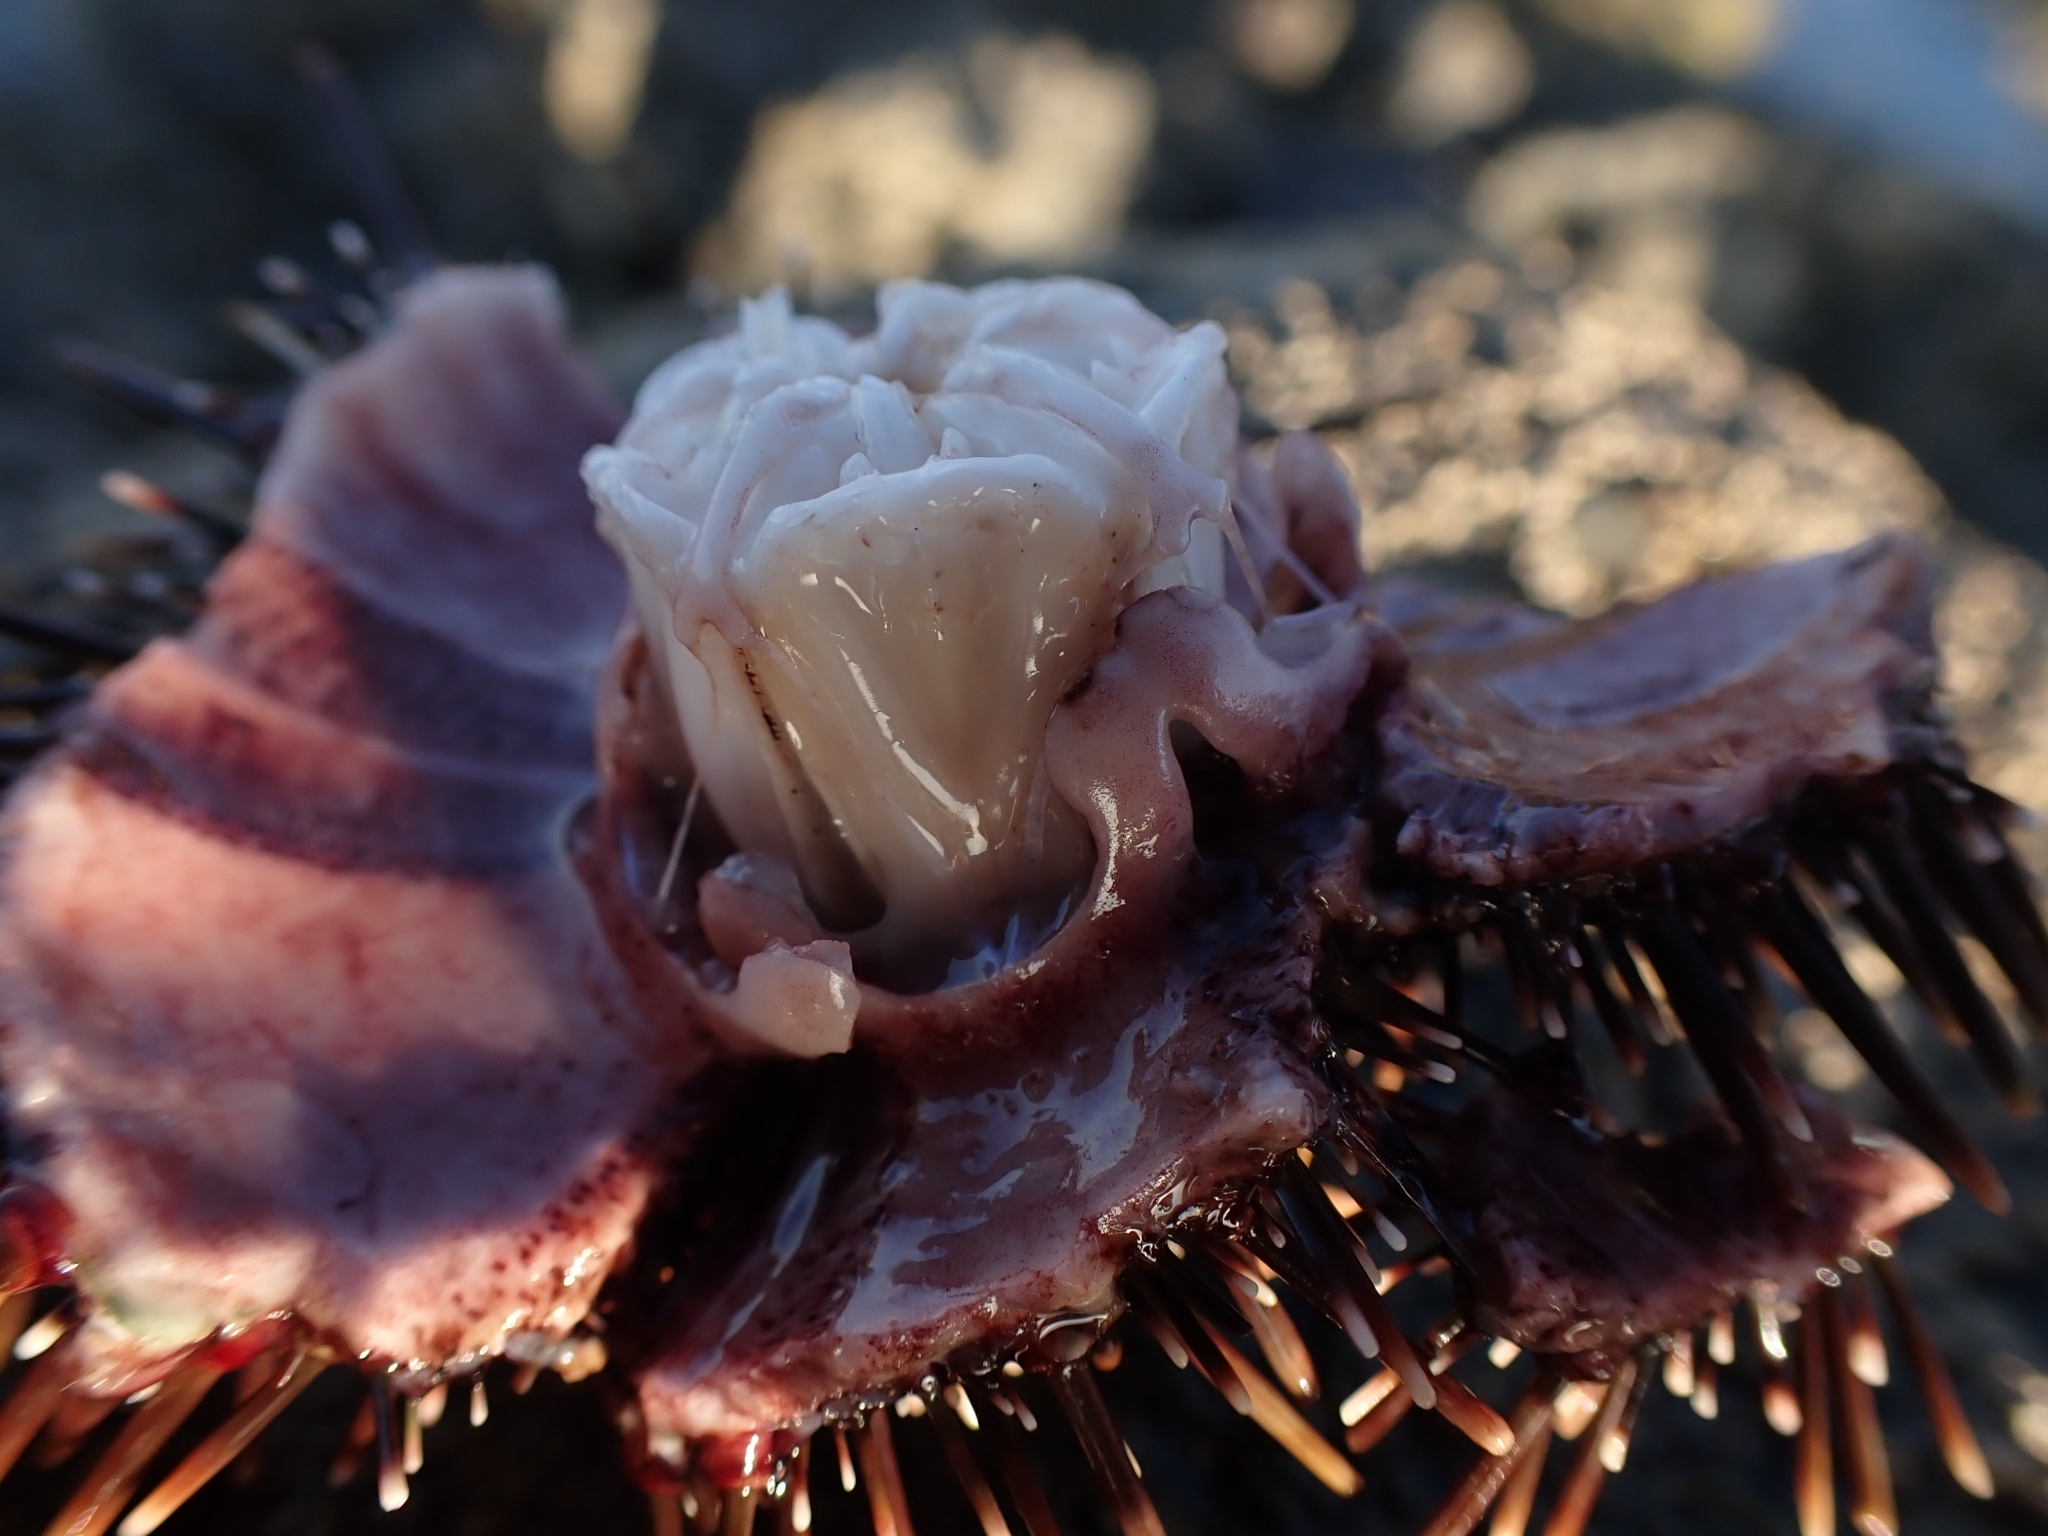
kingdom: Animalia
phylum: Echinodermata
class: Echinoidea
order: Camarodonta
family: Echinometridae
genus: Evechinus
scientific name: Evechinus chloroticus
